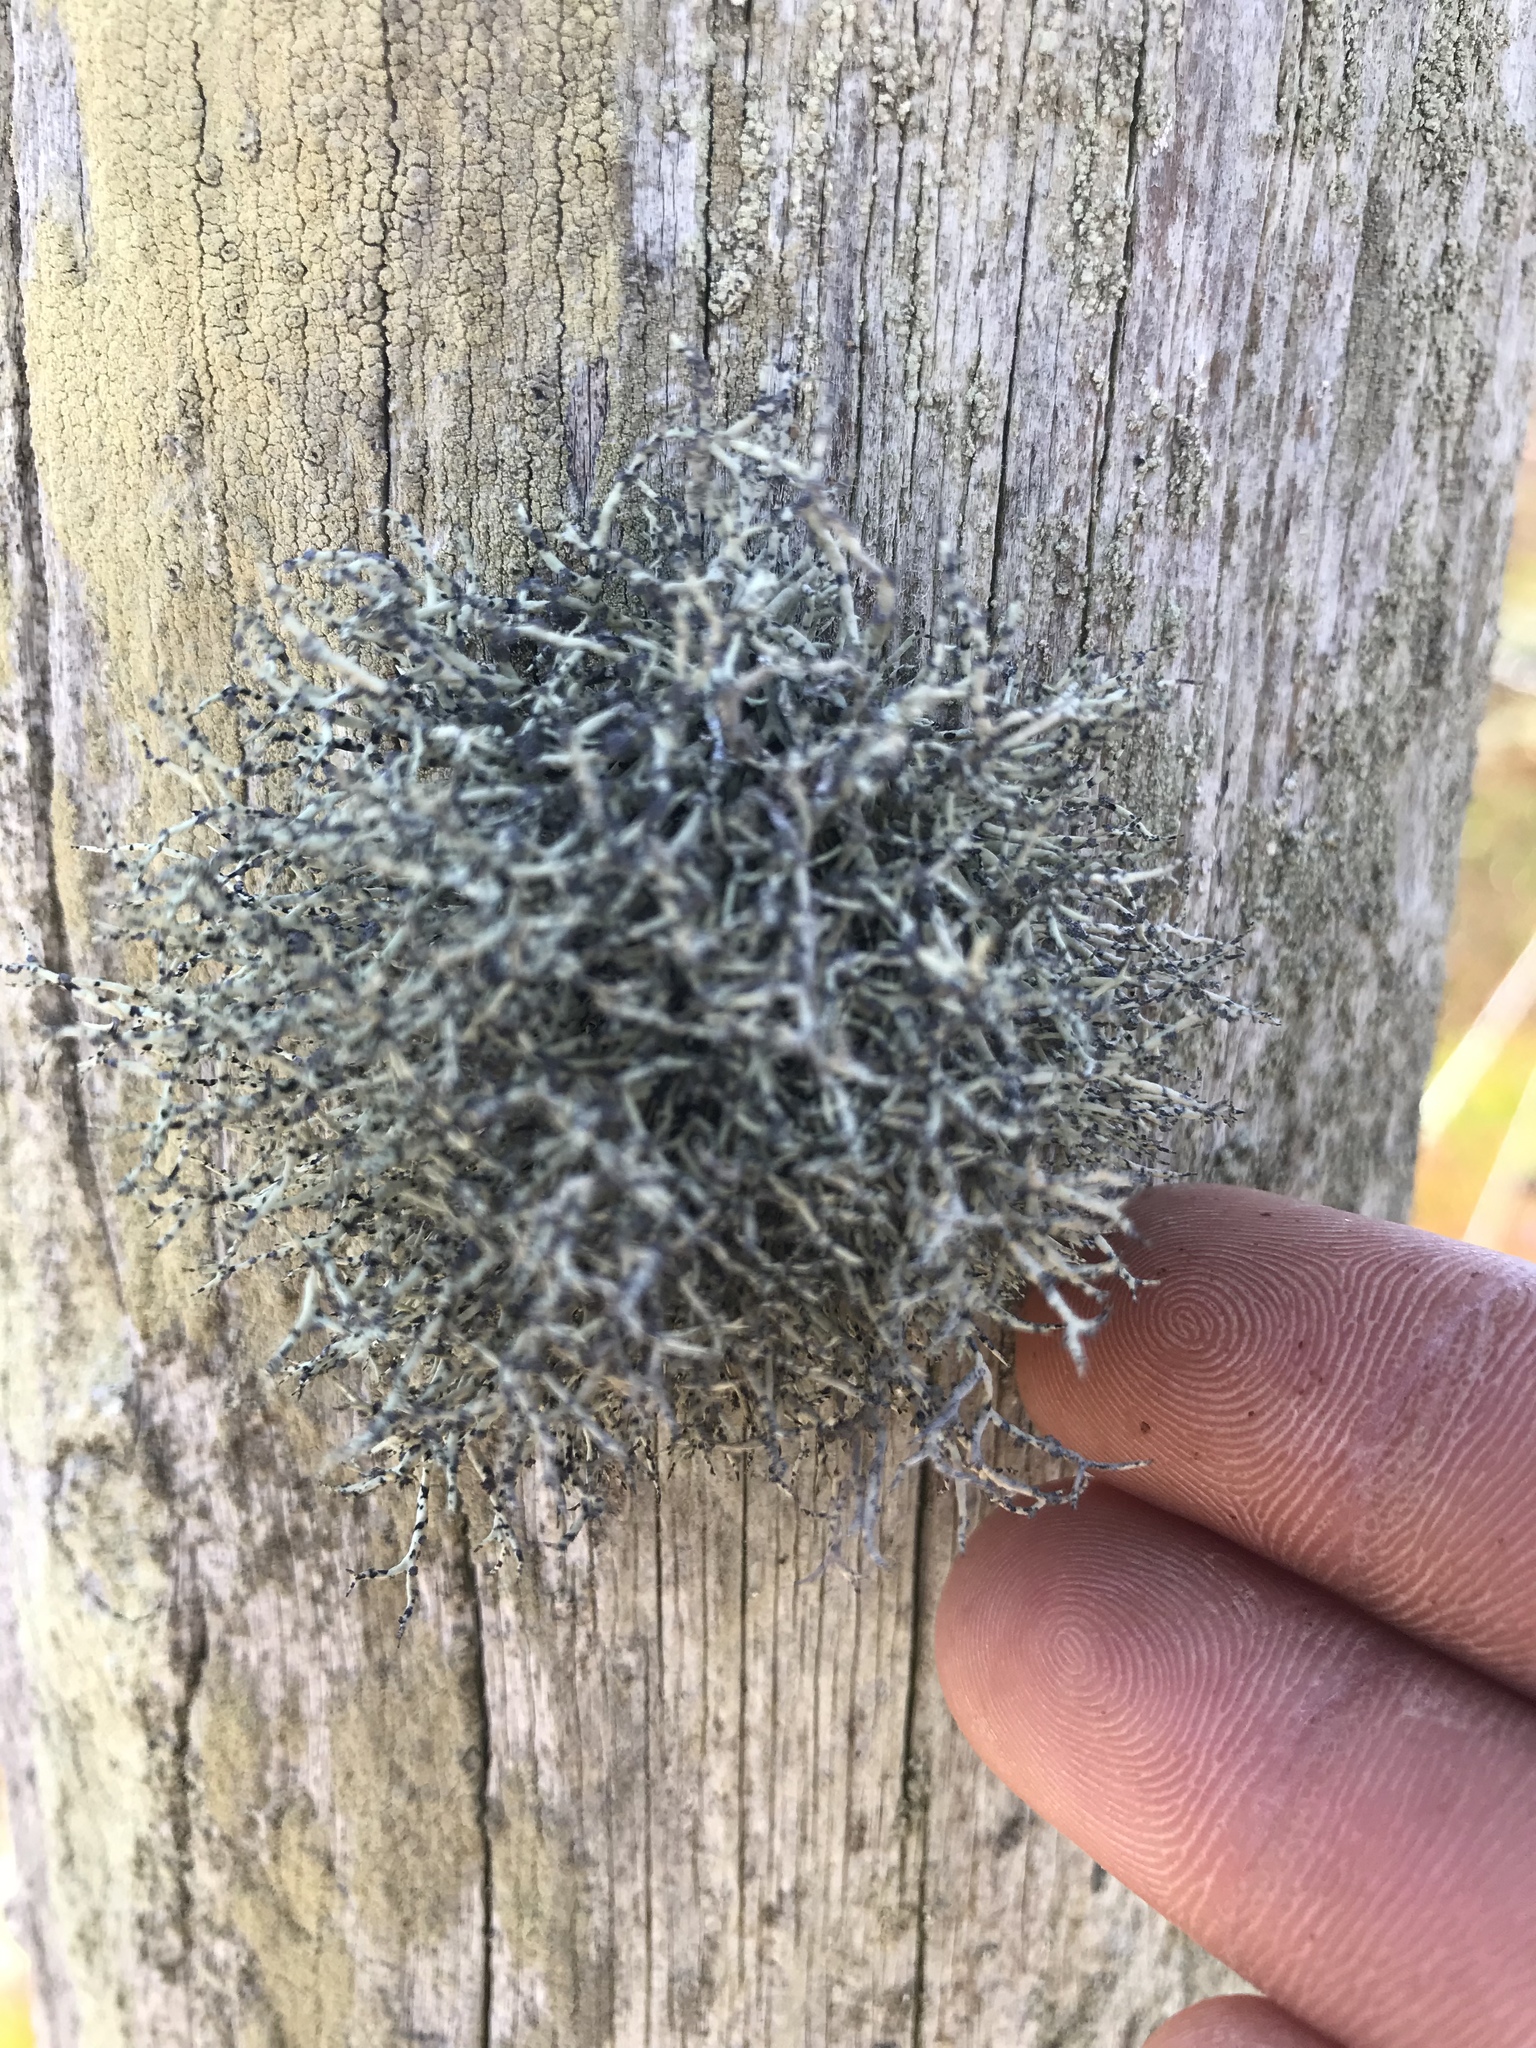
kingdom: Fungi
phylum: Ascomycota
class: Lecanoromycetes
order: Lecanorales
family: Ramalinaceae
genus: Niebla
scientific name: Niebla cephalota
